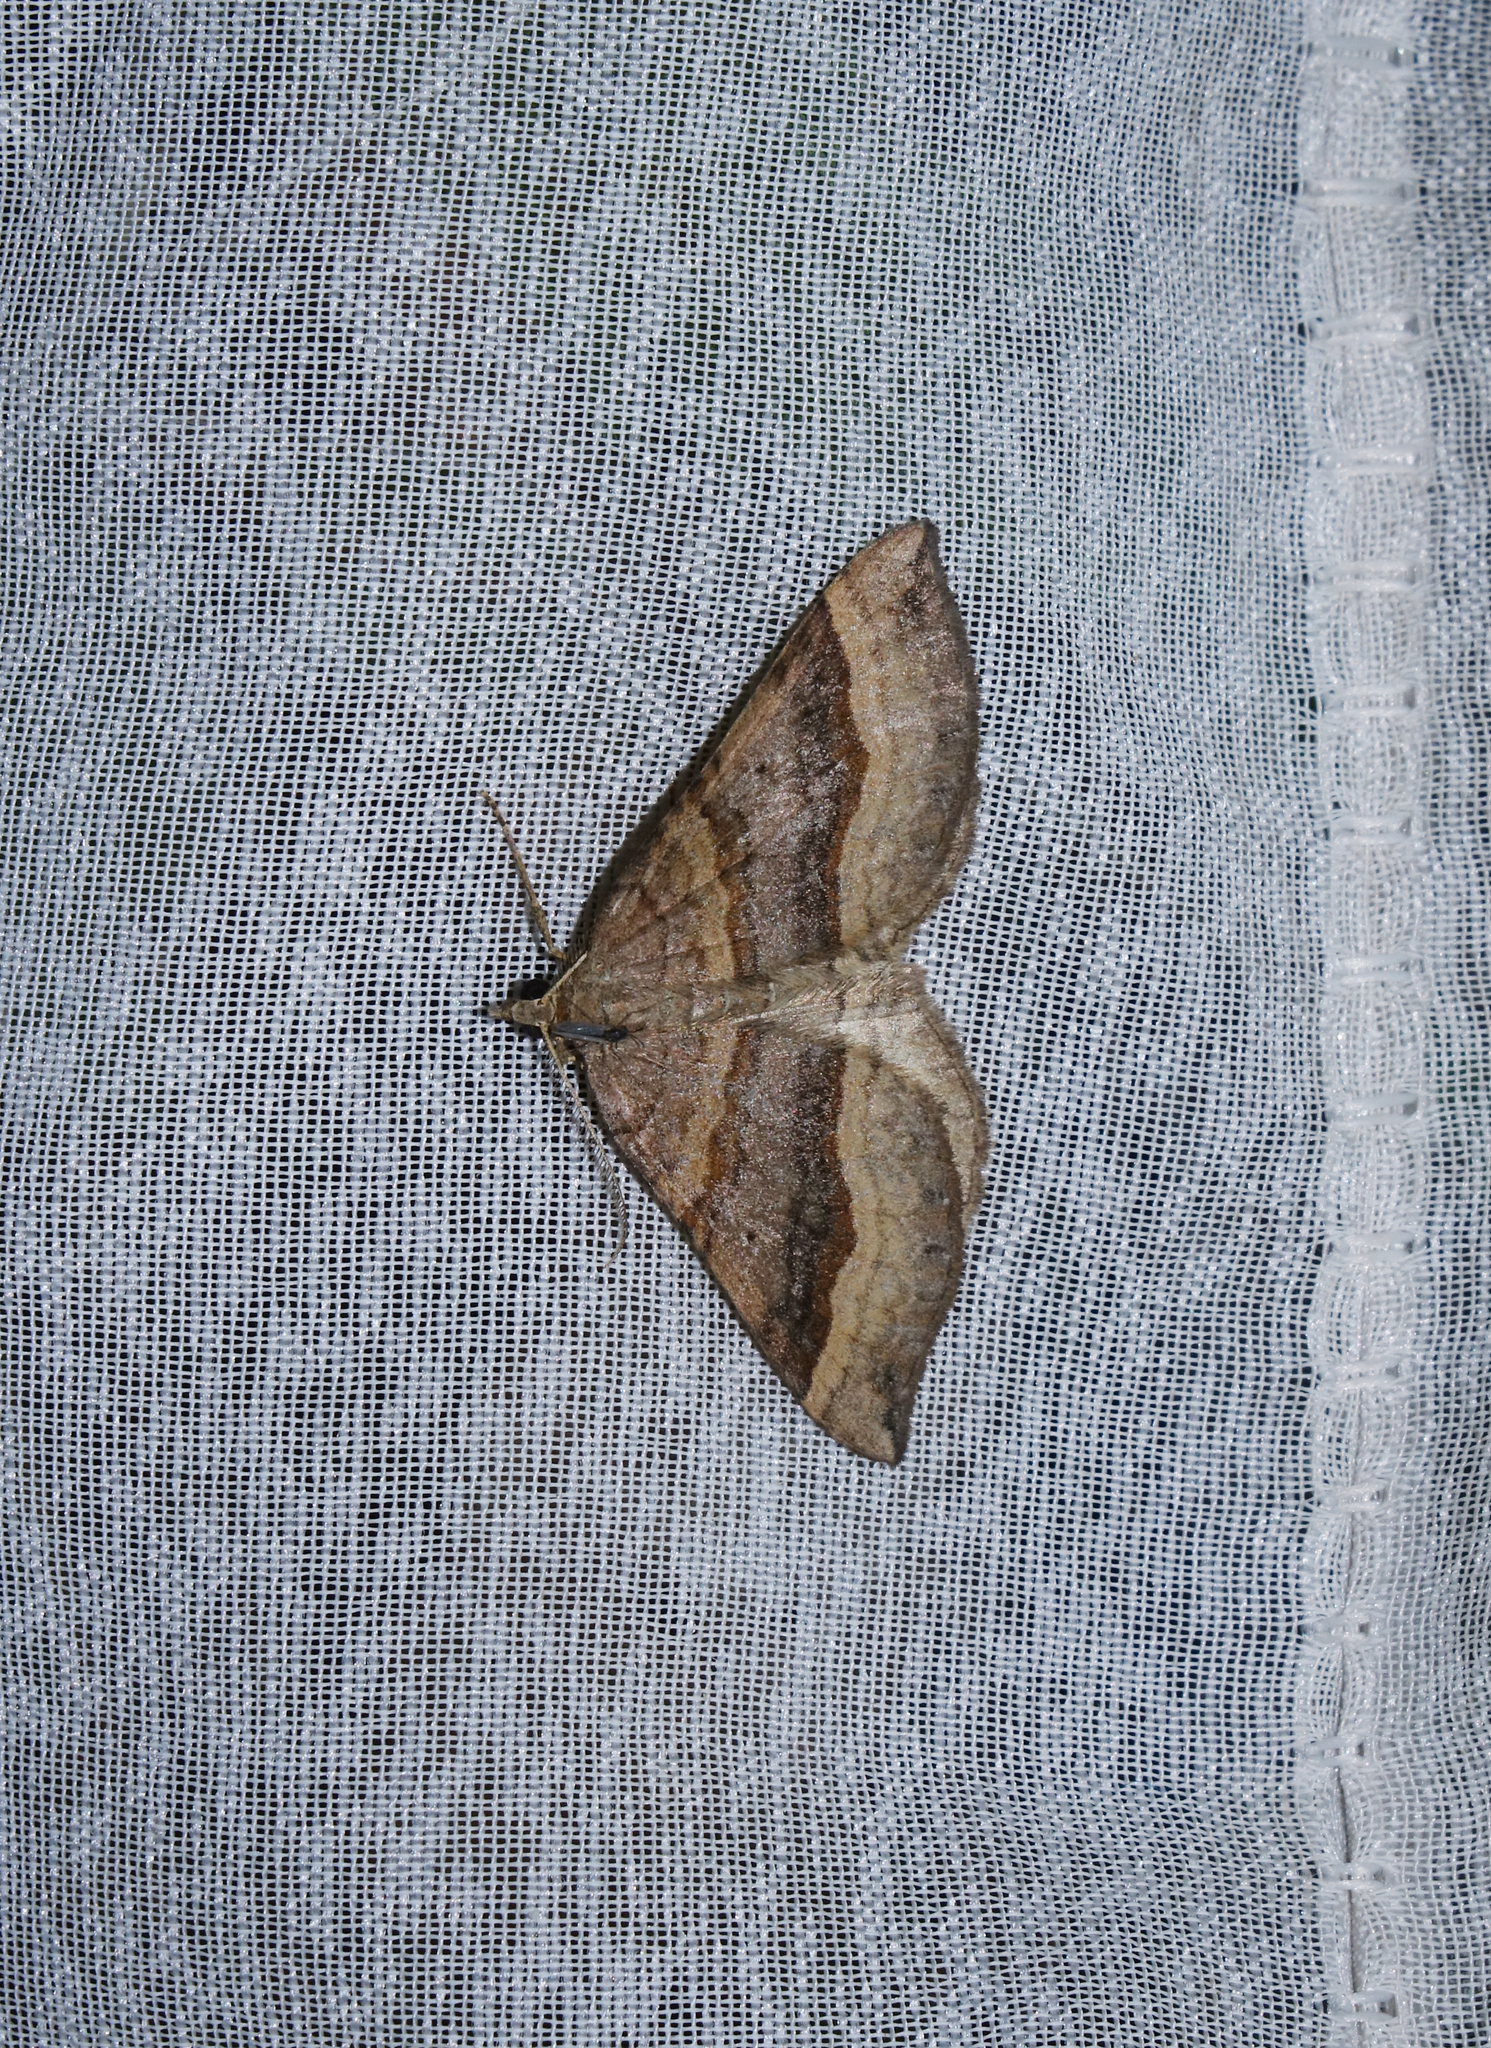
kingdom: Animalia
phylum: Arthropoda
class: Insecta
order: Lepidoptera
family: Geometridae
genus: Scotopteryx
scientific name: Scotopteryx chenopodiata
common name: Shaded broad-bar
